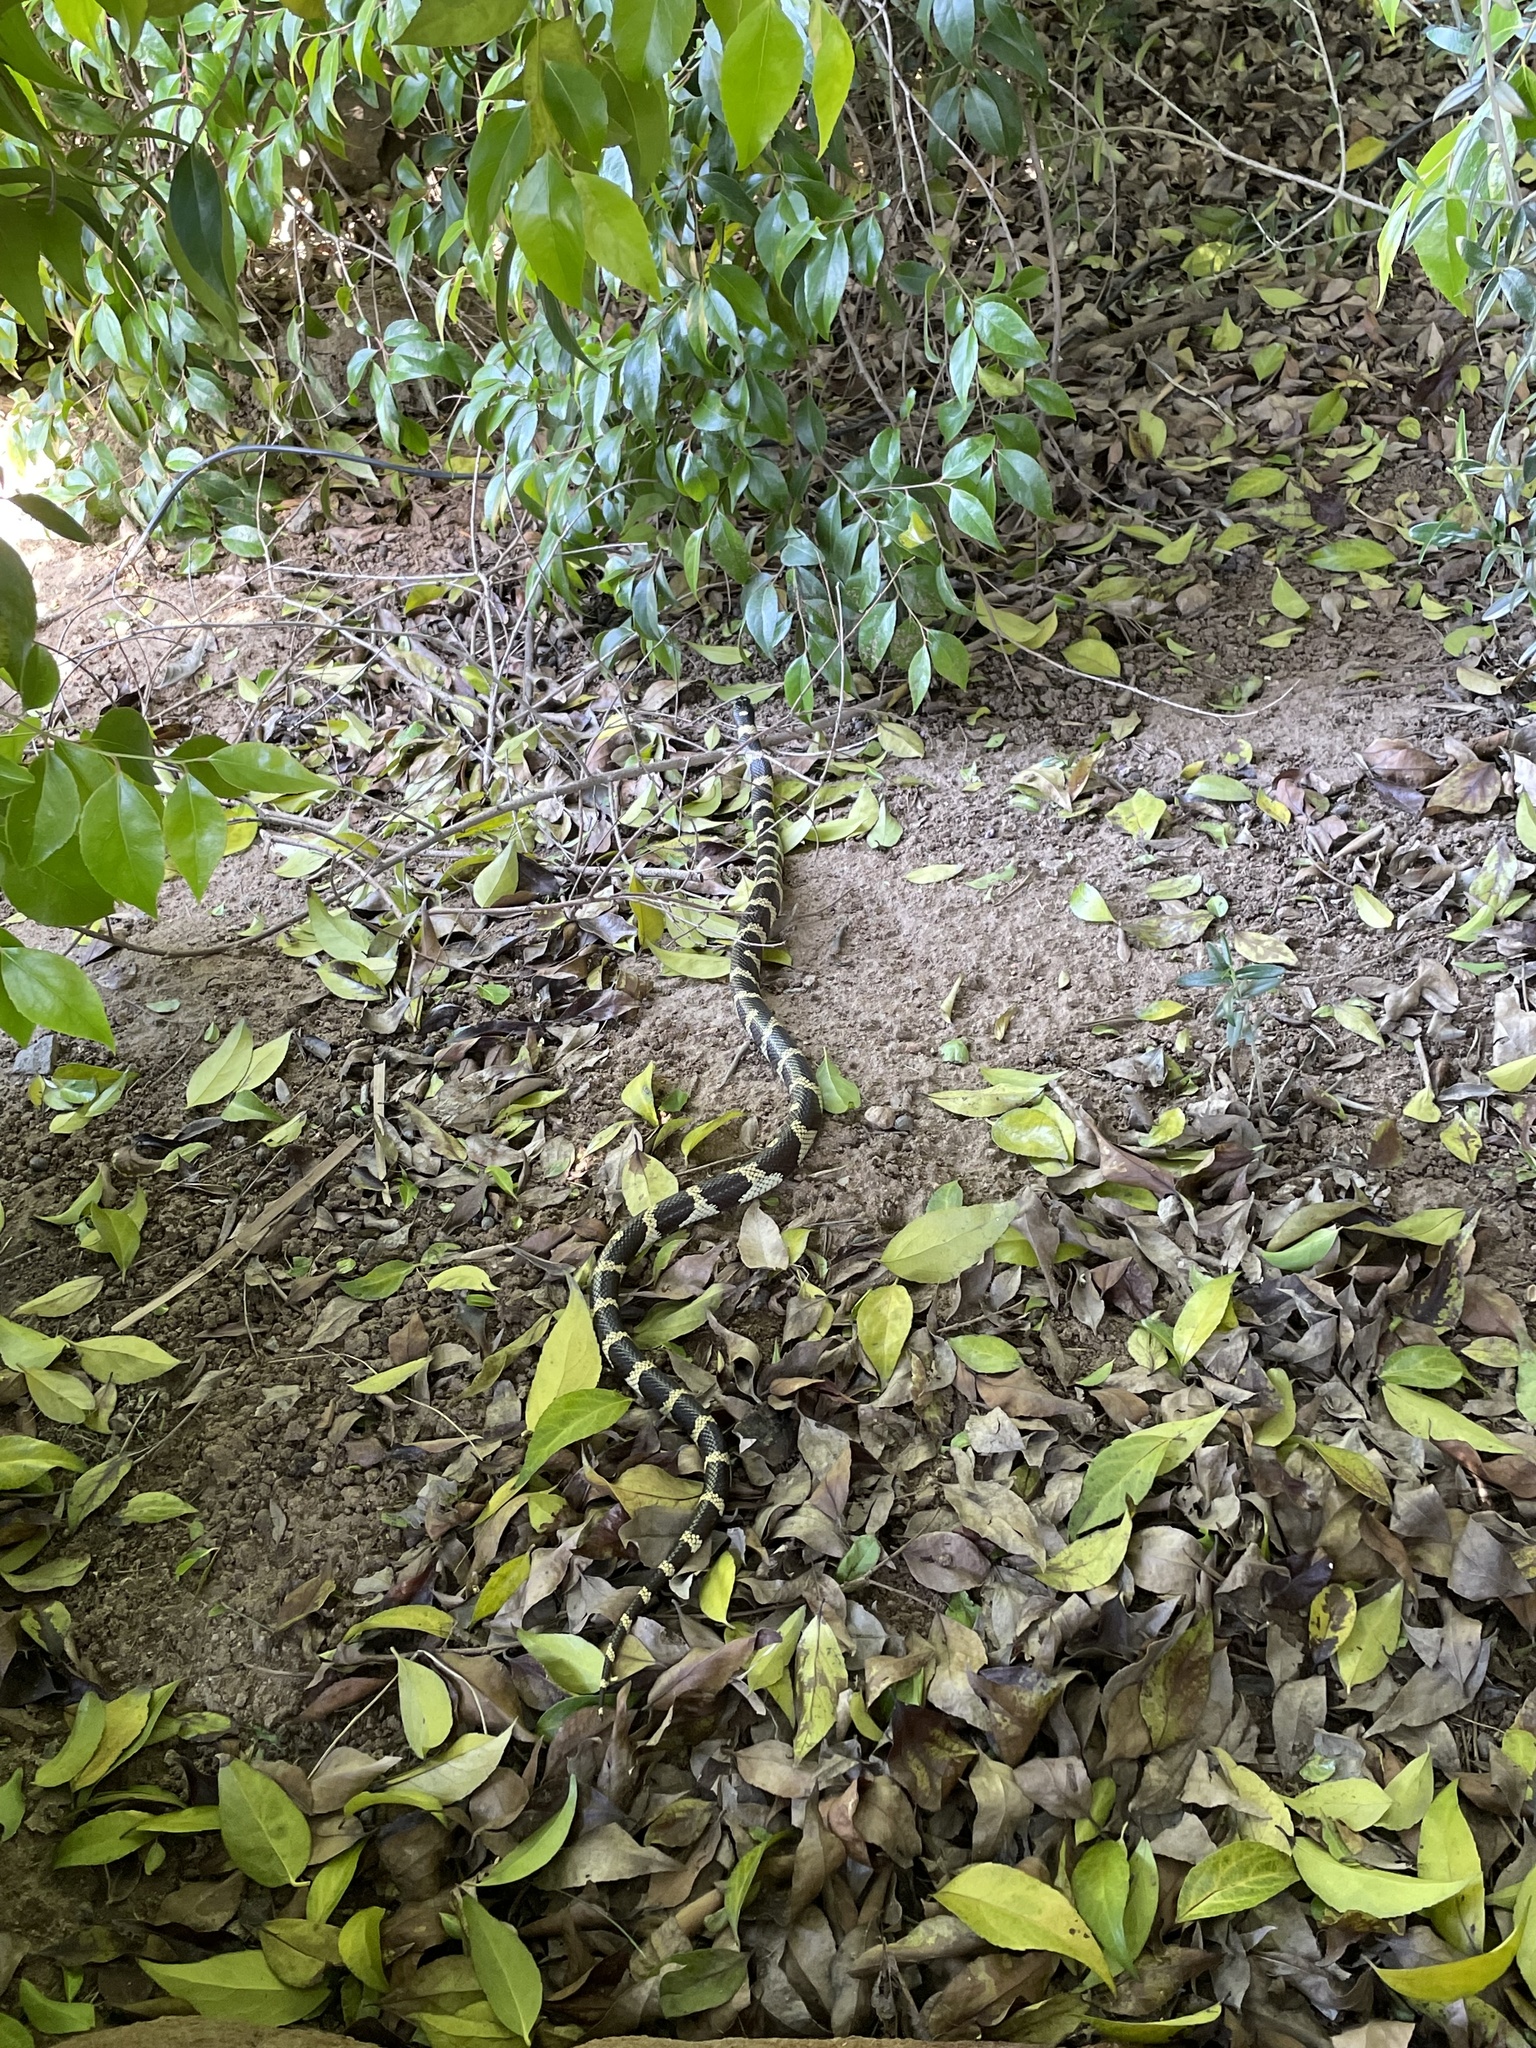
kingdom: Animalia
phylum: Chordata
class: Squamata
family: Colubridae
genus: Lampropeltis
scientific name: Lampropeltis californiae
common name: California kingsnake
